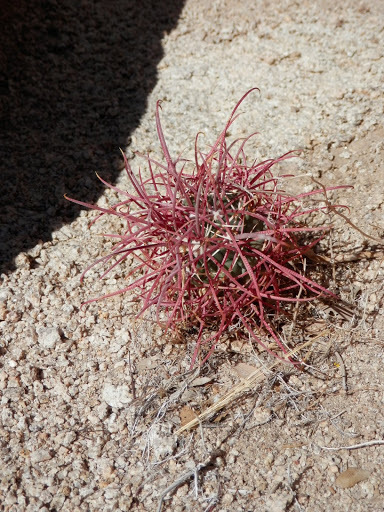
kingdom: Plantae
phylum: Tracheophyta
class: Magnoliopsida
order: Caryophyllales
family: Cactaceae
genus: Ferocactus
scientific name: Ferocactus cylindraceus
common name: California barrel cactus
